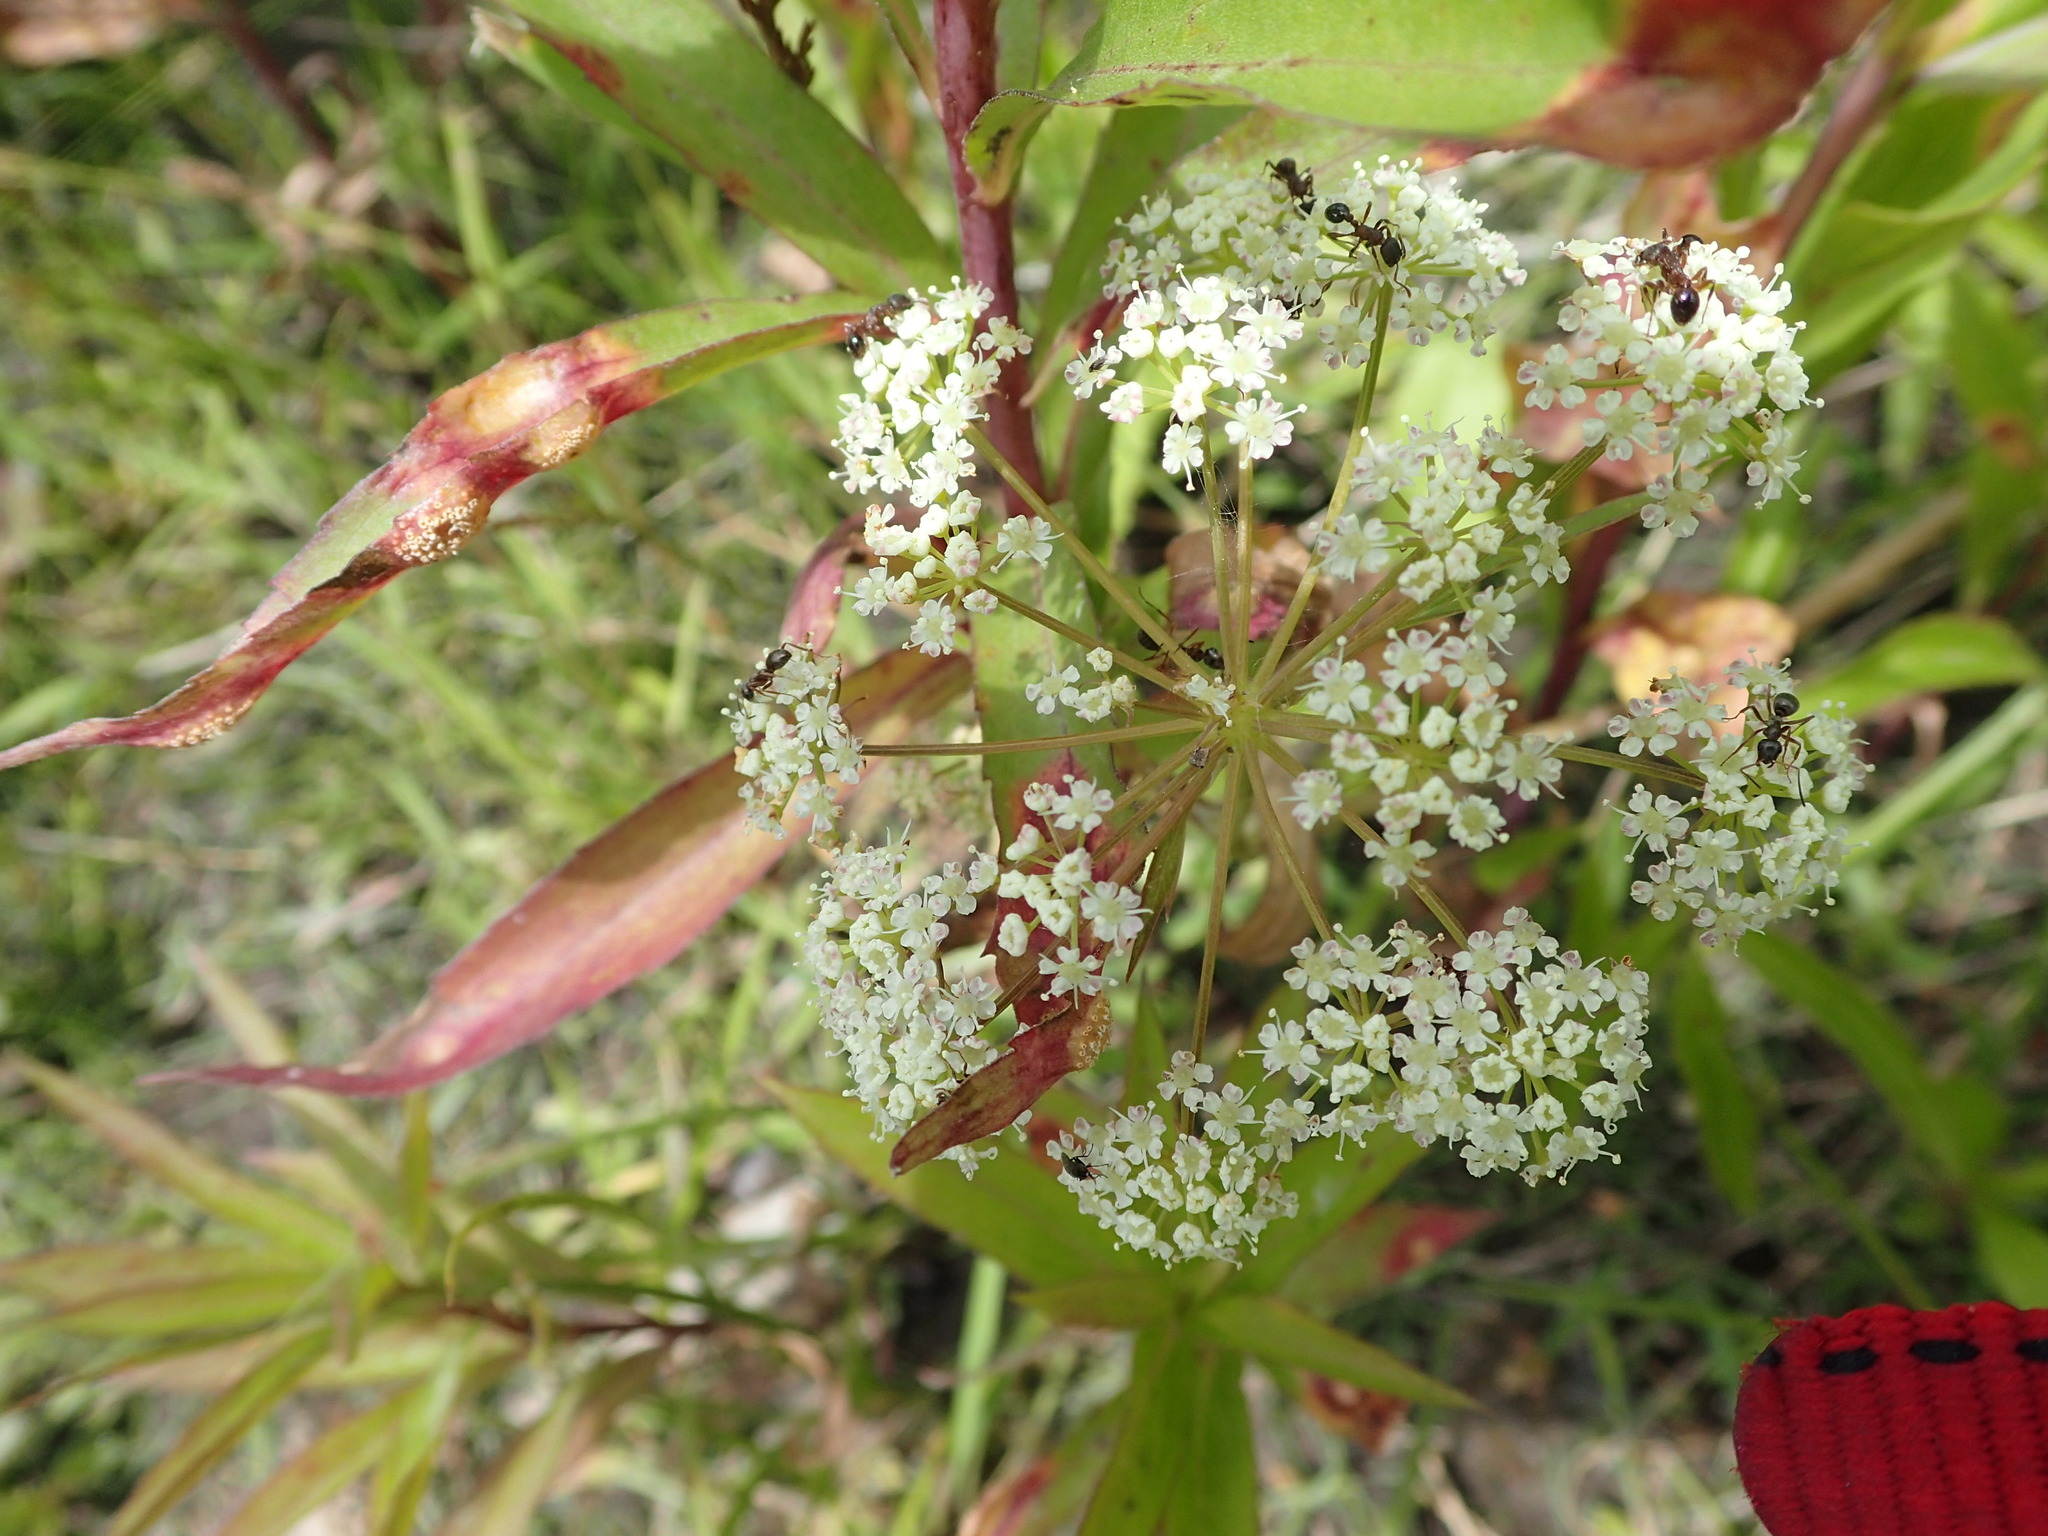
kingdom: Plantae
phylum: Tracheophyta
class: Magnoliopsida
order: Apiales
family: Apiaceae
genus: Cicuta
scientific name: Cicuta maculata
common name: Spotted cowbane
